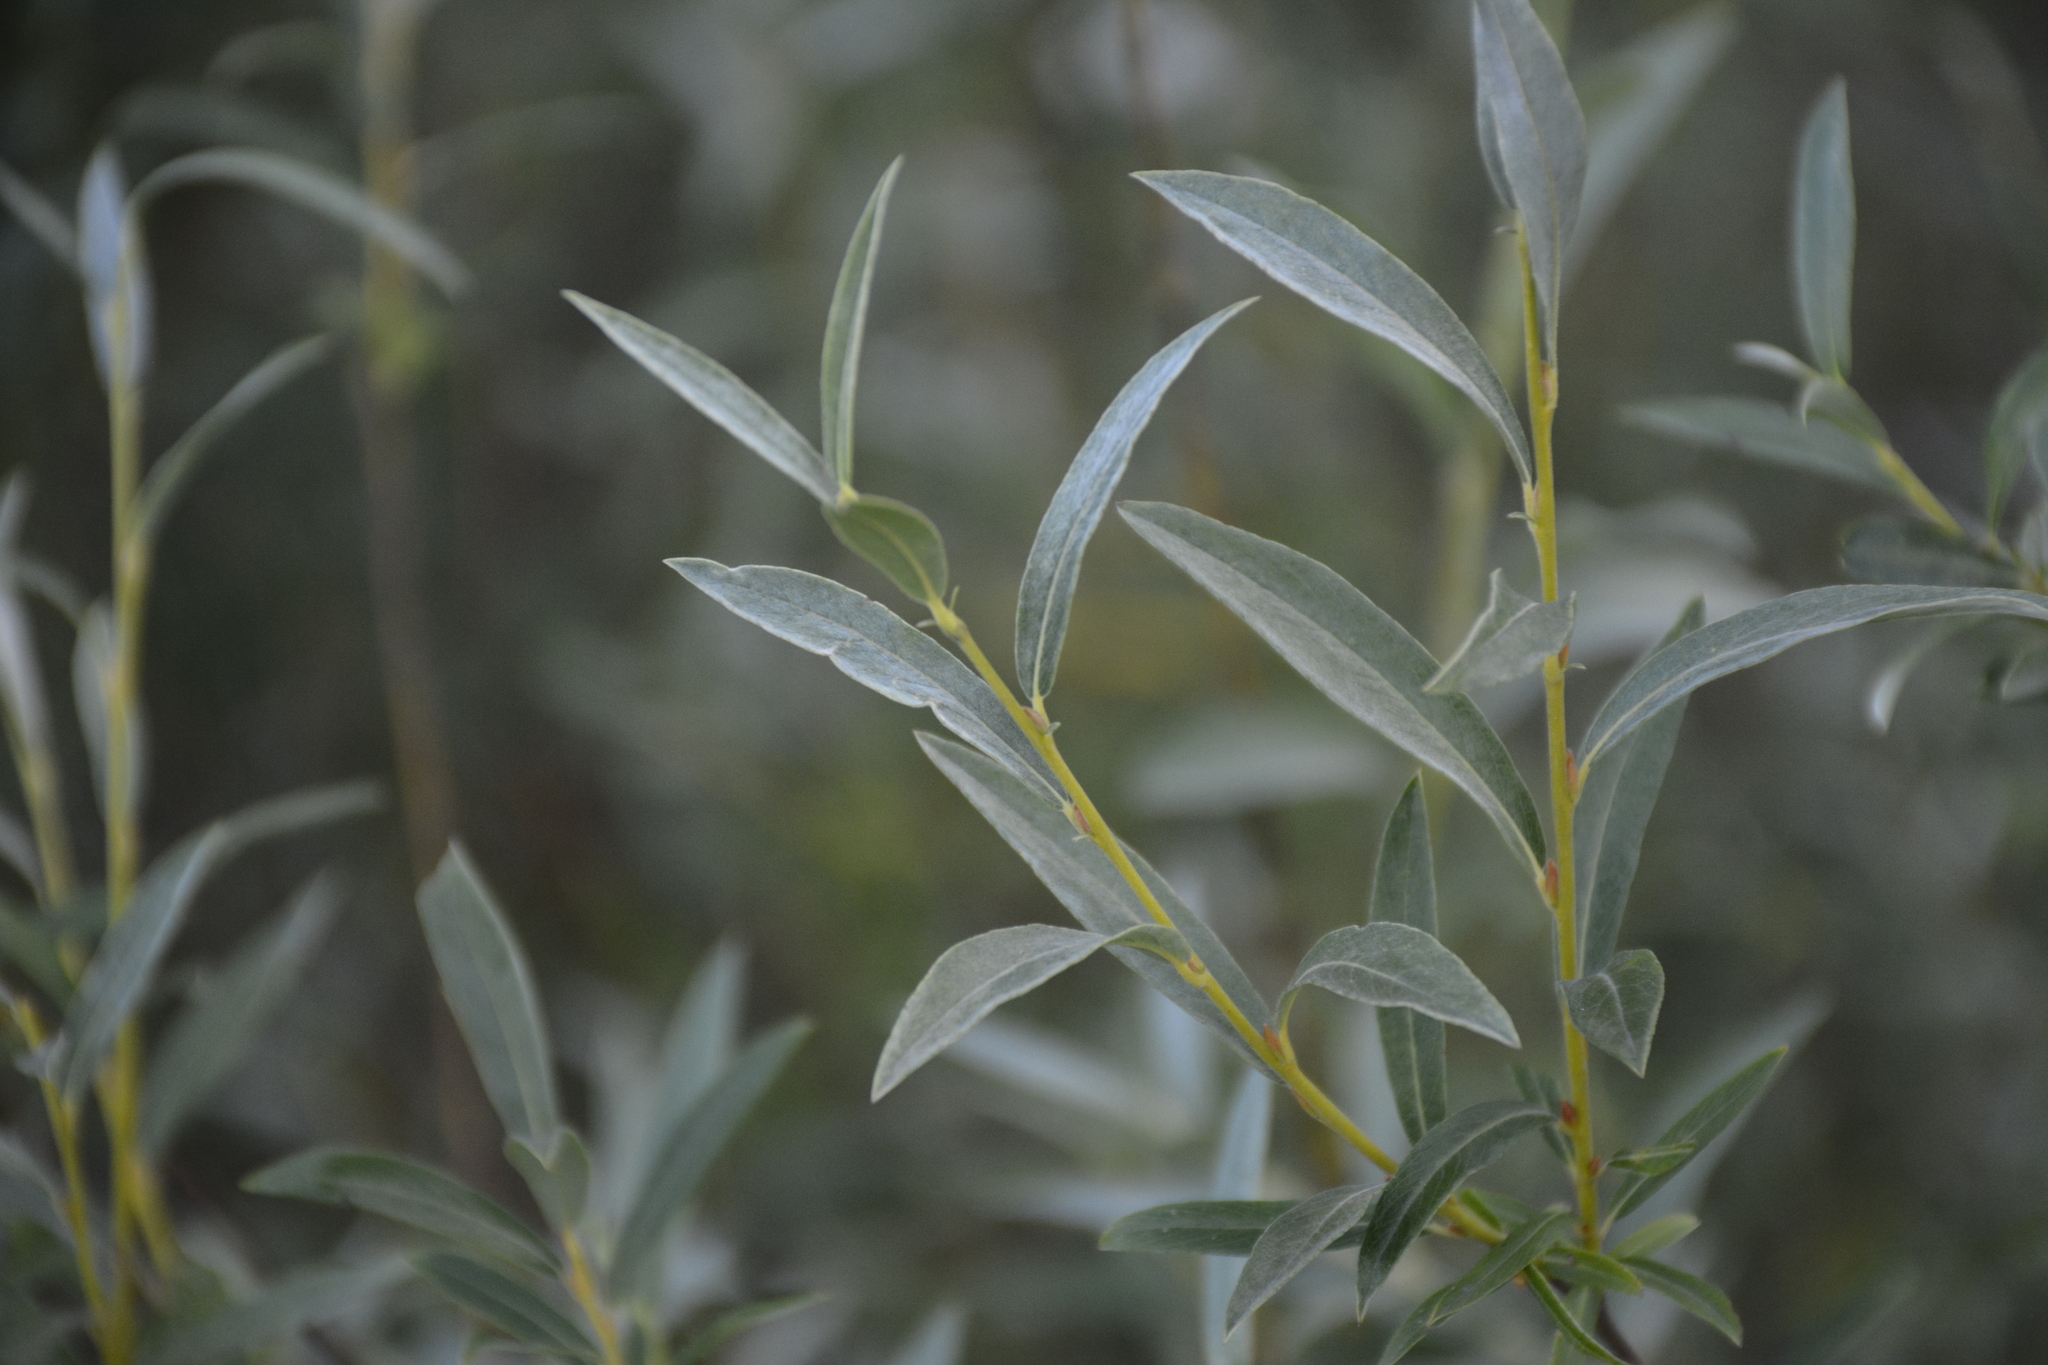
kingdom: Plantae
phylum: Tracheophyta
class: Magnoliopsida
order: Malpighiales
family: Salicaceae
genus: Salix
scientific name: Salix rosmarinifolia
